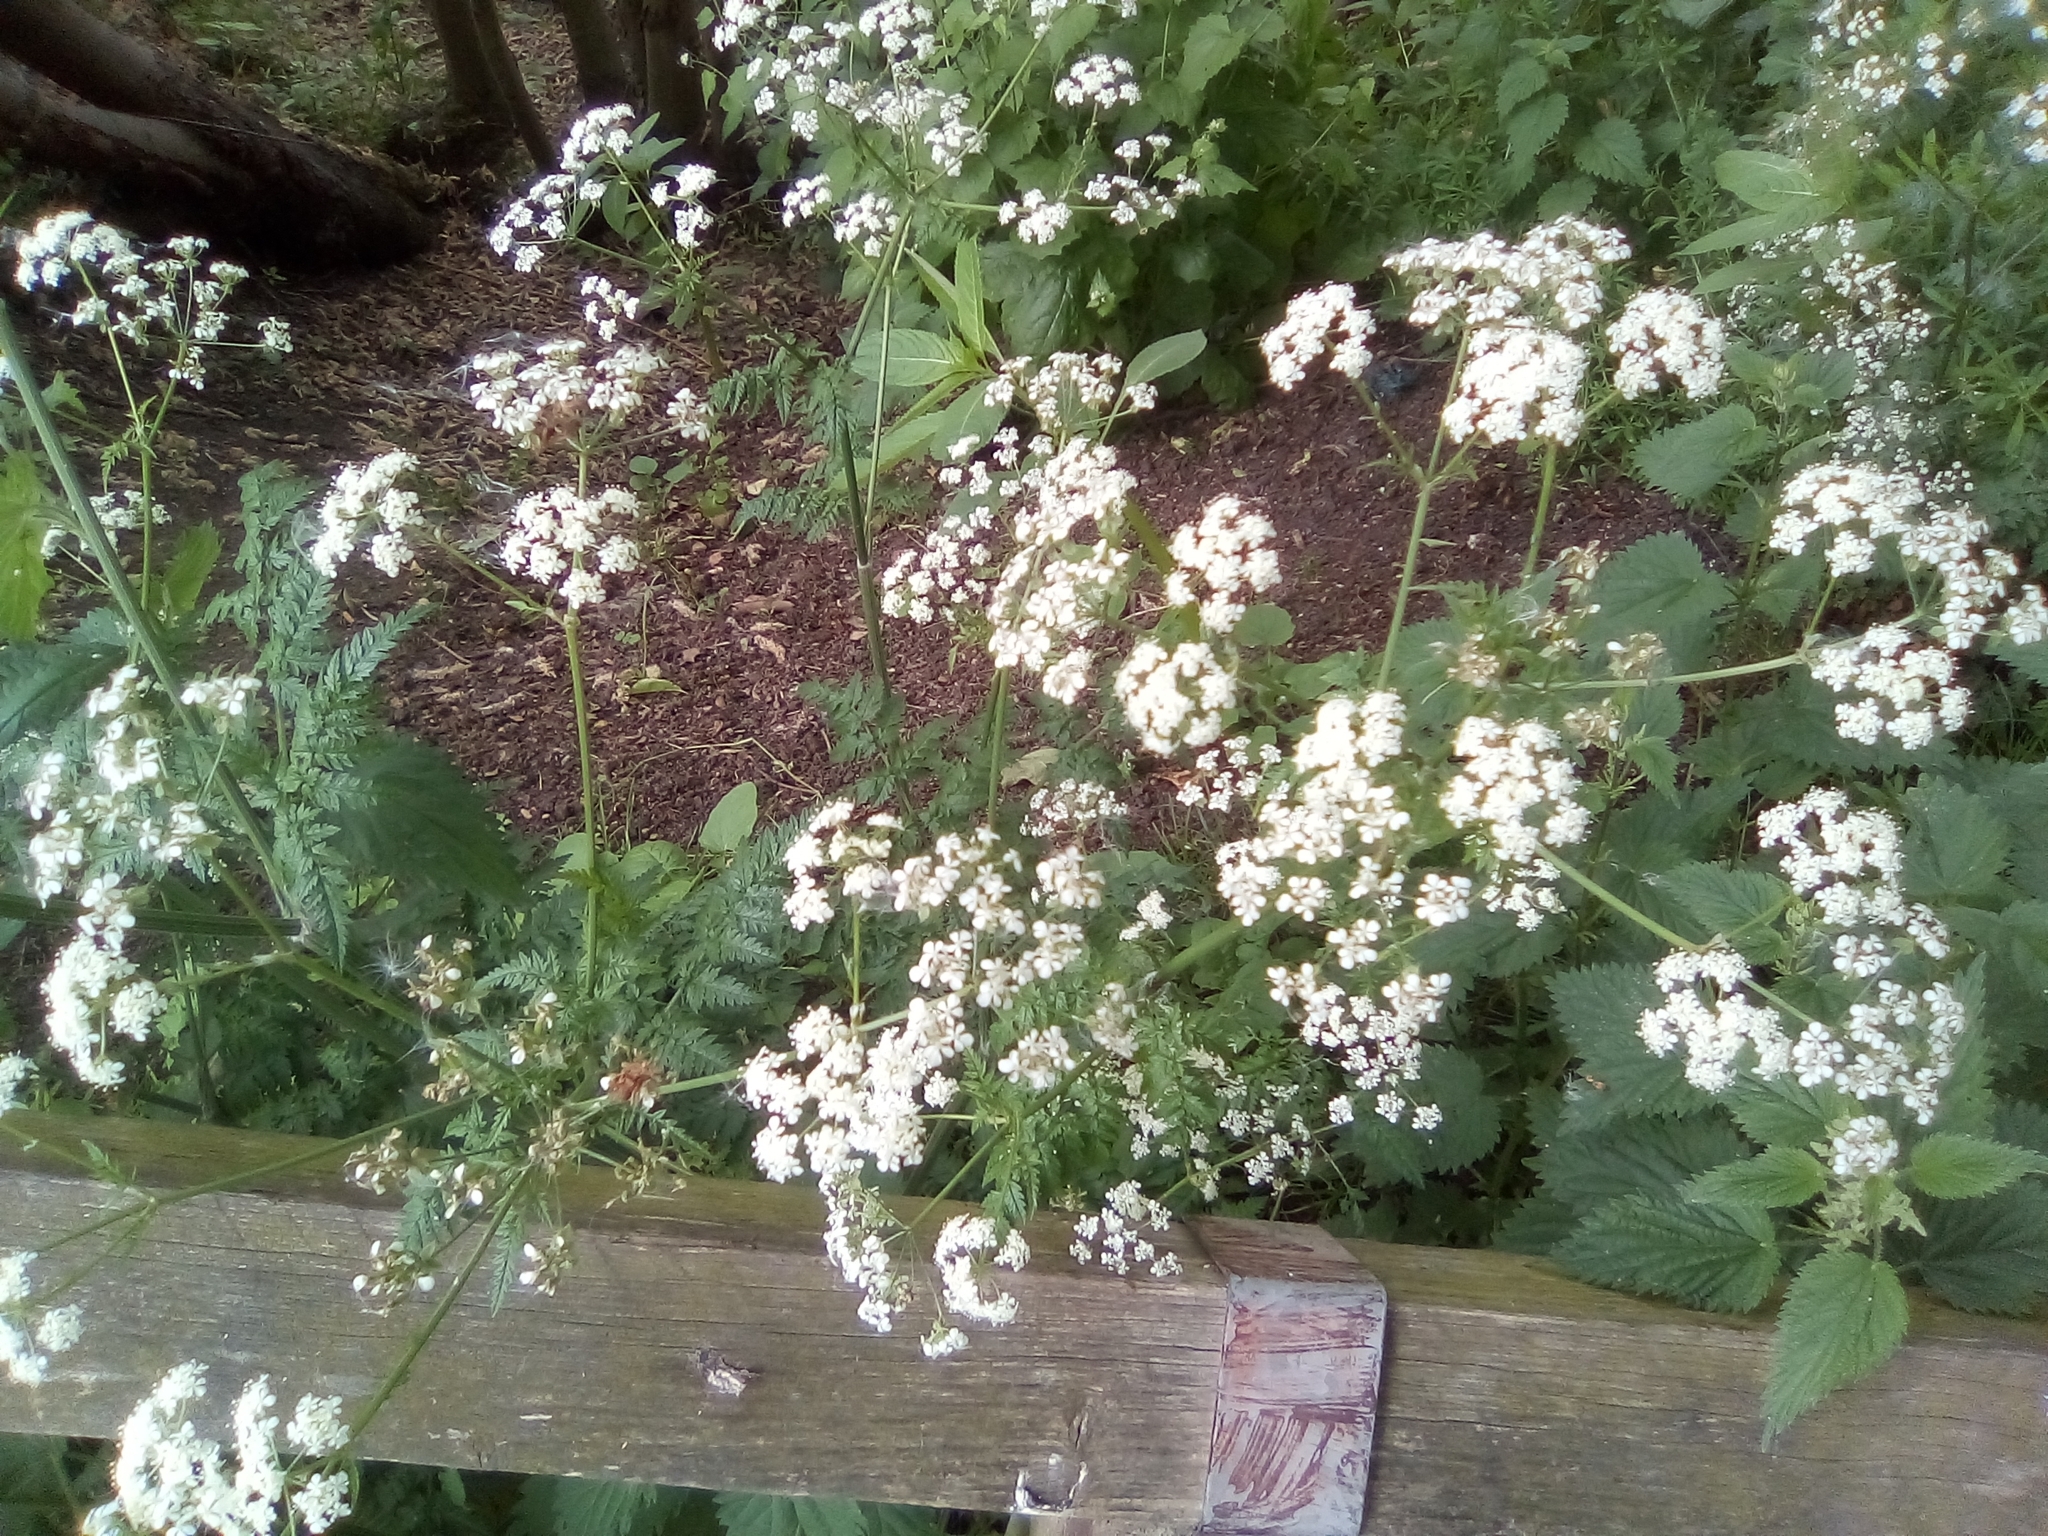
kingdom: Plantae
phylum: Tracheophyta
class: Magnoliopsida
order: Apiales
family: Apiaceae
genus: Anthriscus
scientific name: Anthriscus sylvestris
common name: Cow parsley
